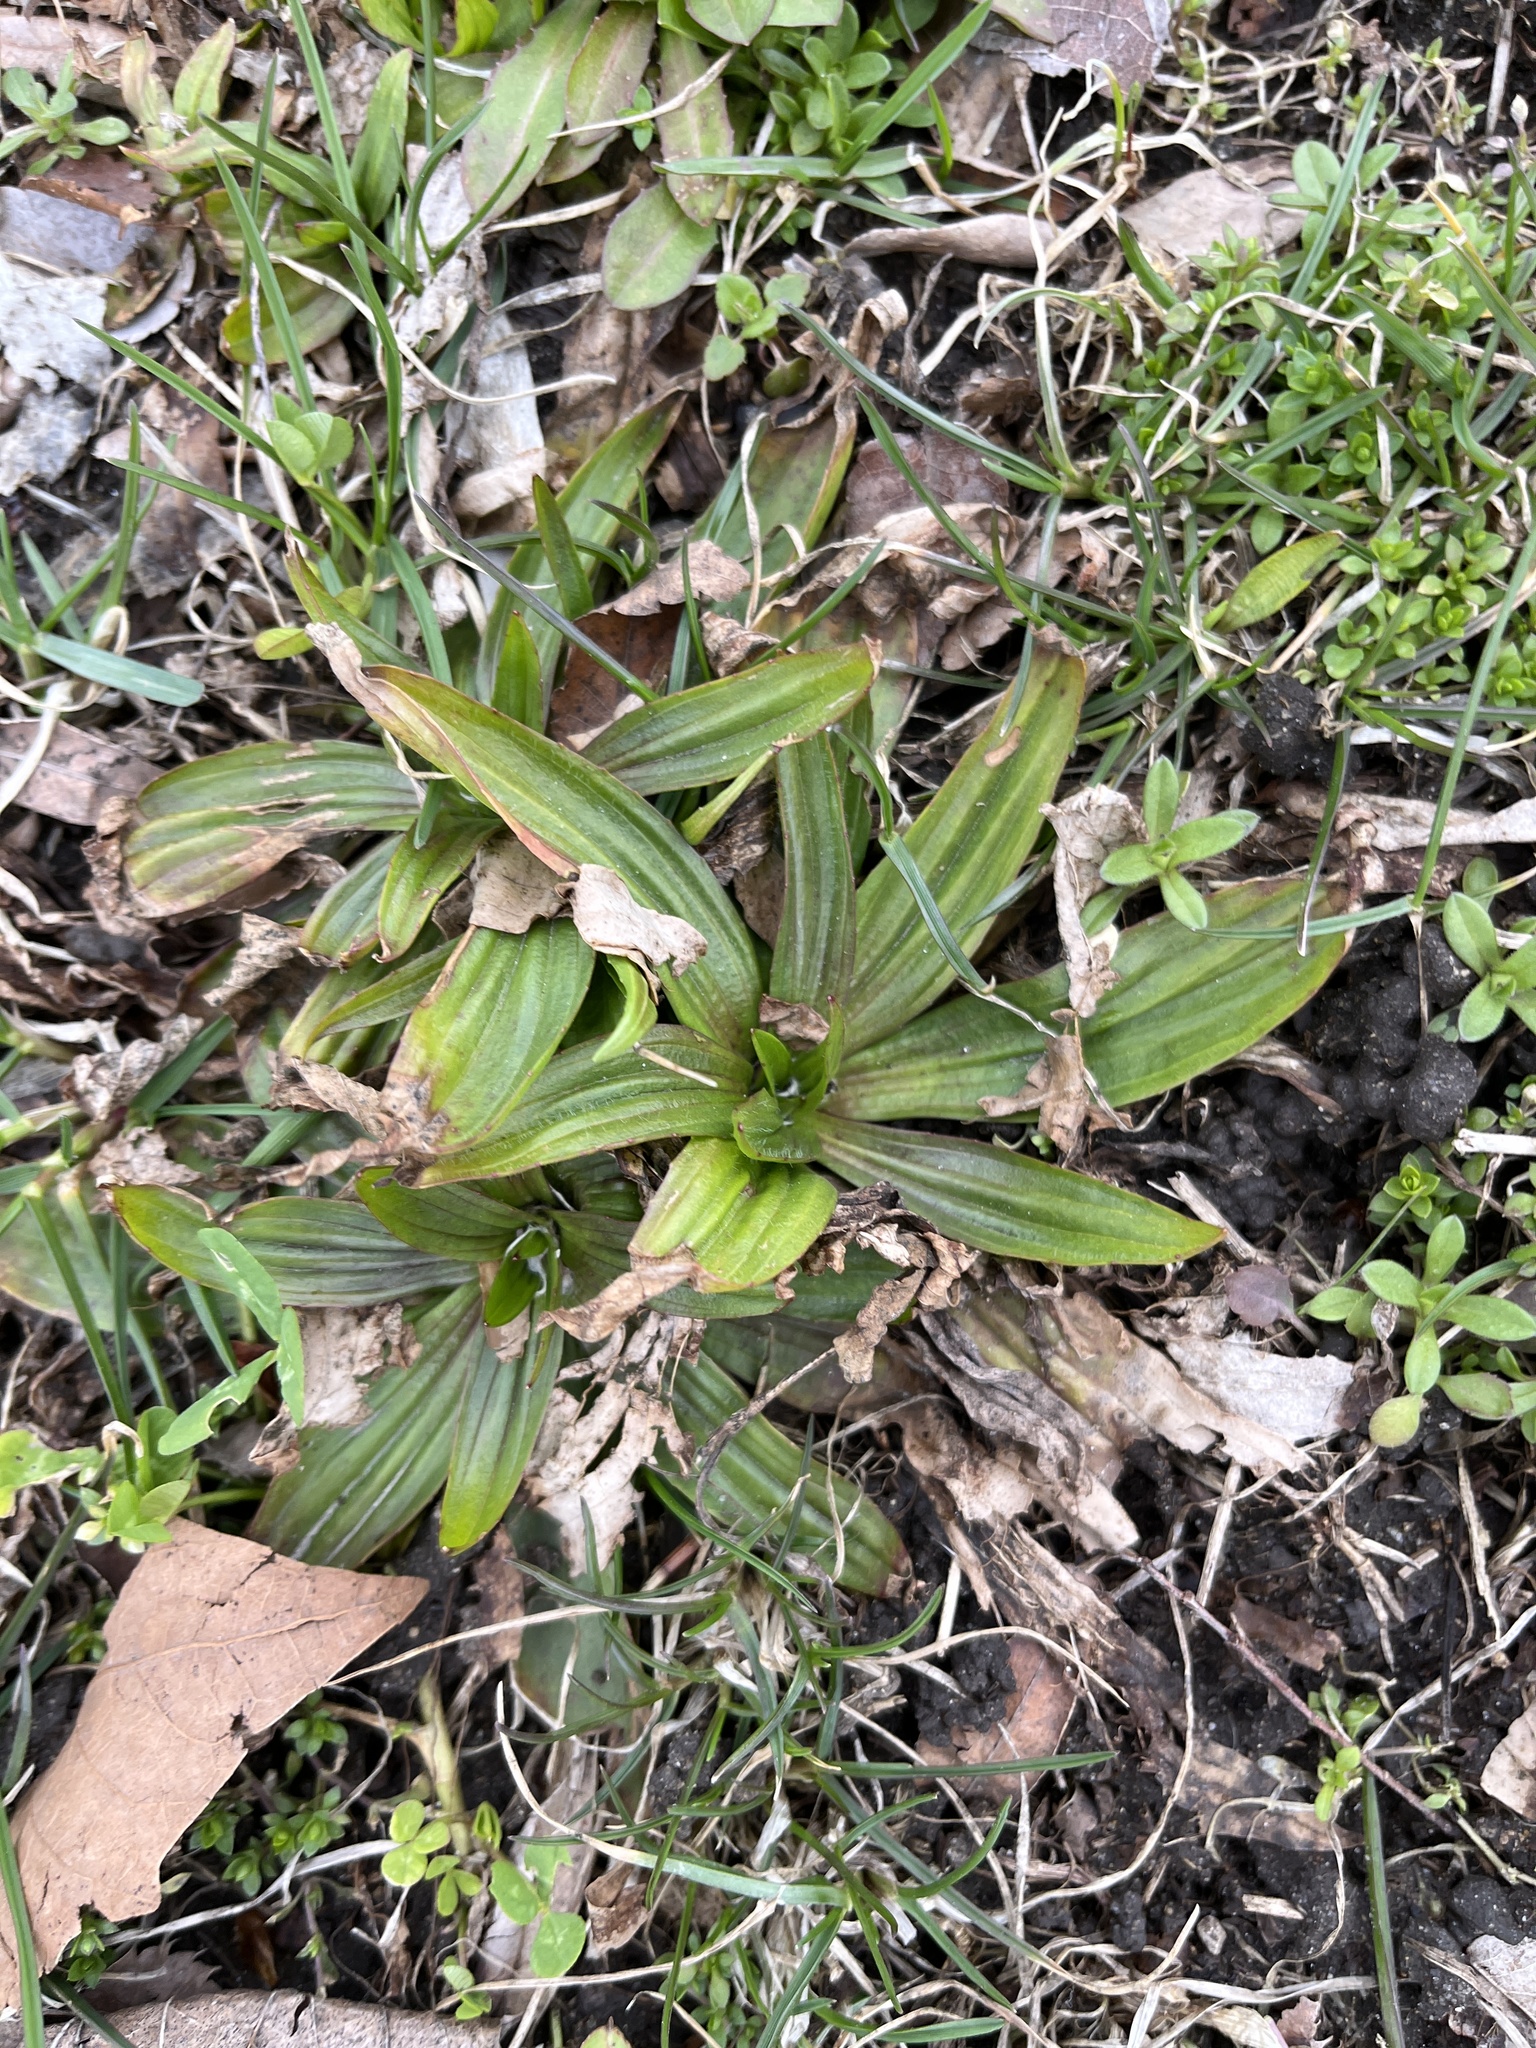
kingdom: Plantae
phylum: Tracheophyta
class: Magnoliopsida
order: Lamiales
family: Plantaginaceae
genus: Plantago
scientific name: Plantago lanceolata
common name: Ribwort plantain
